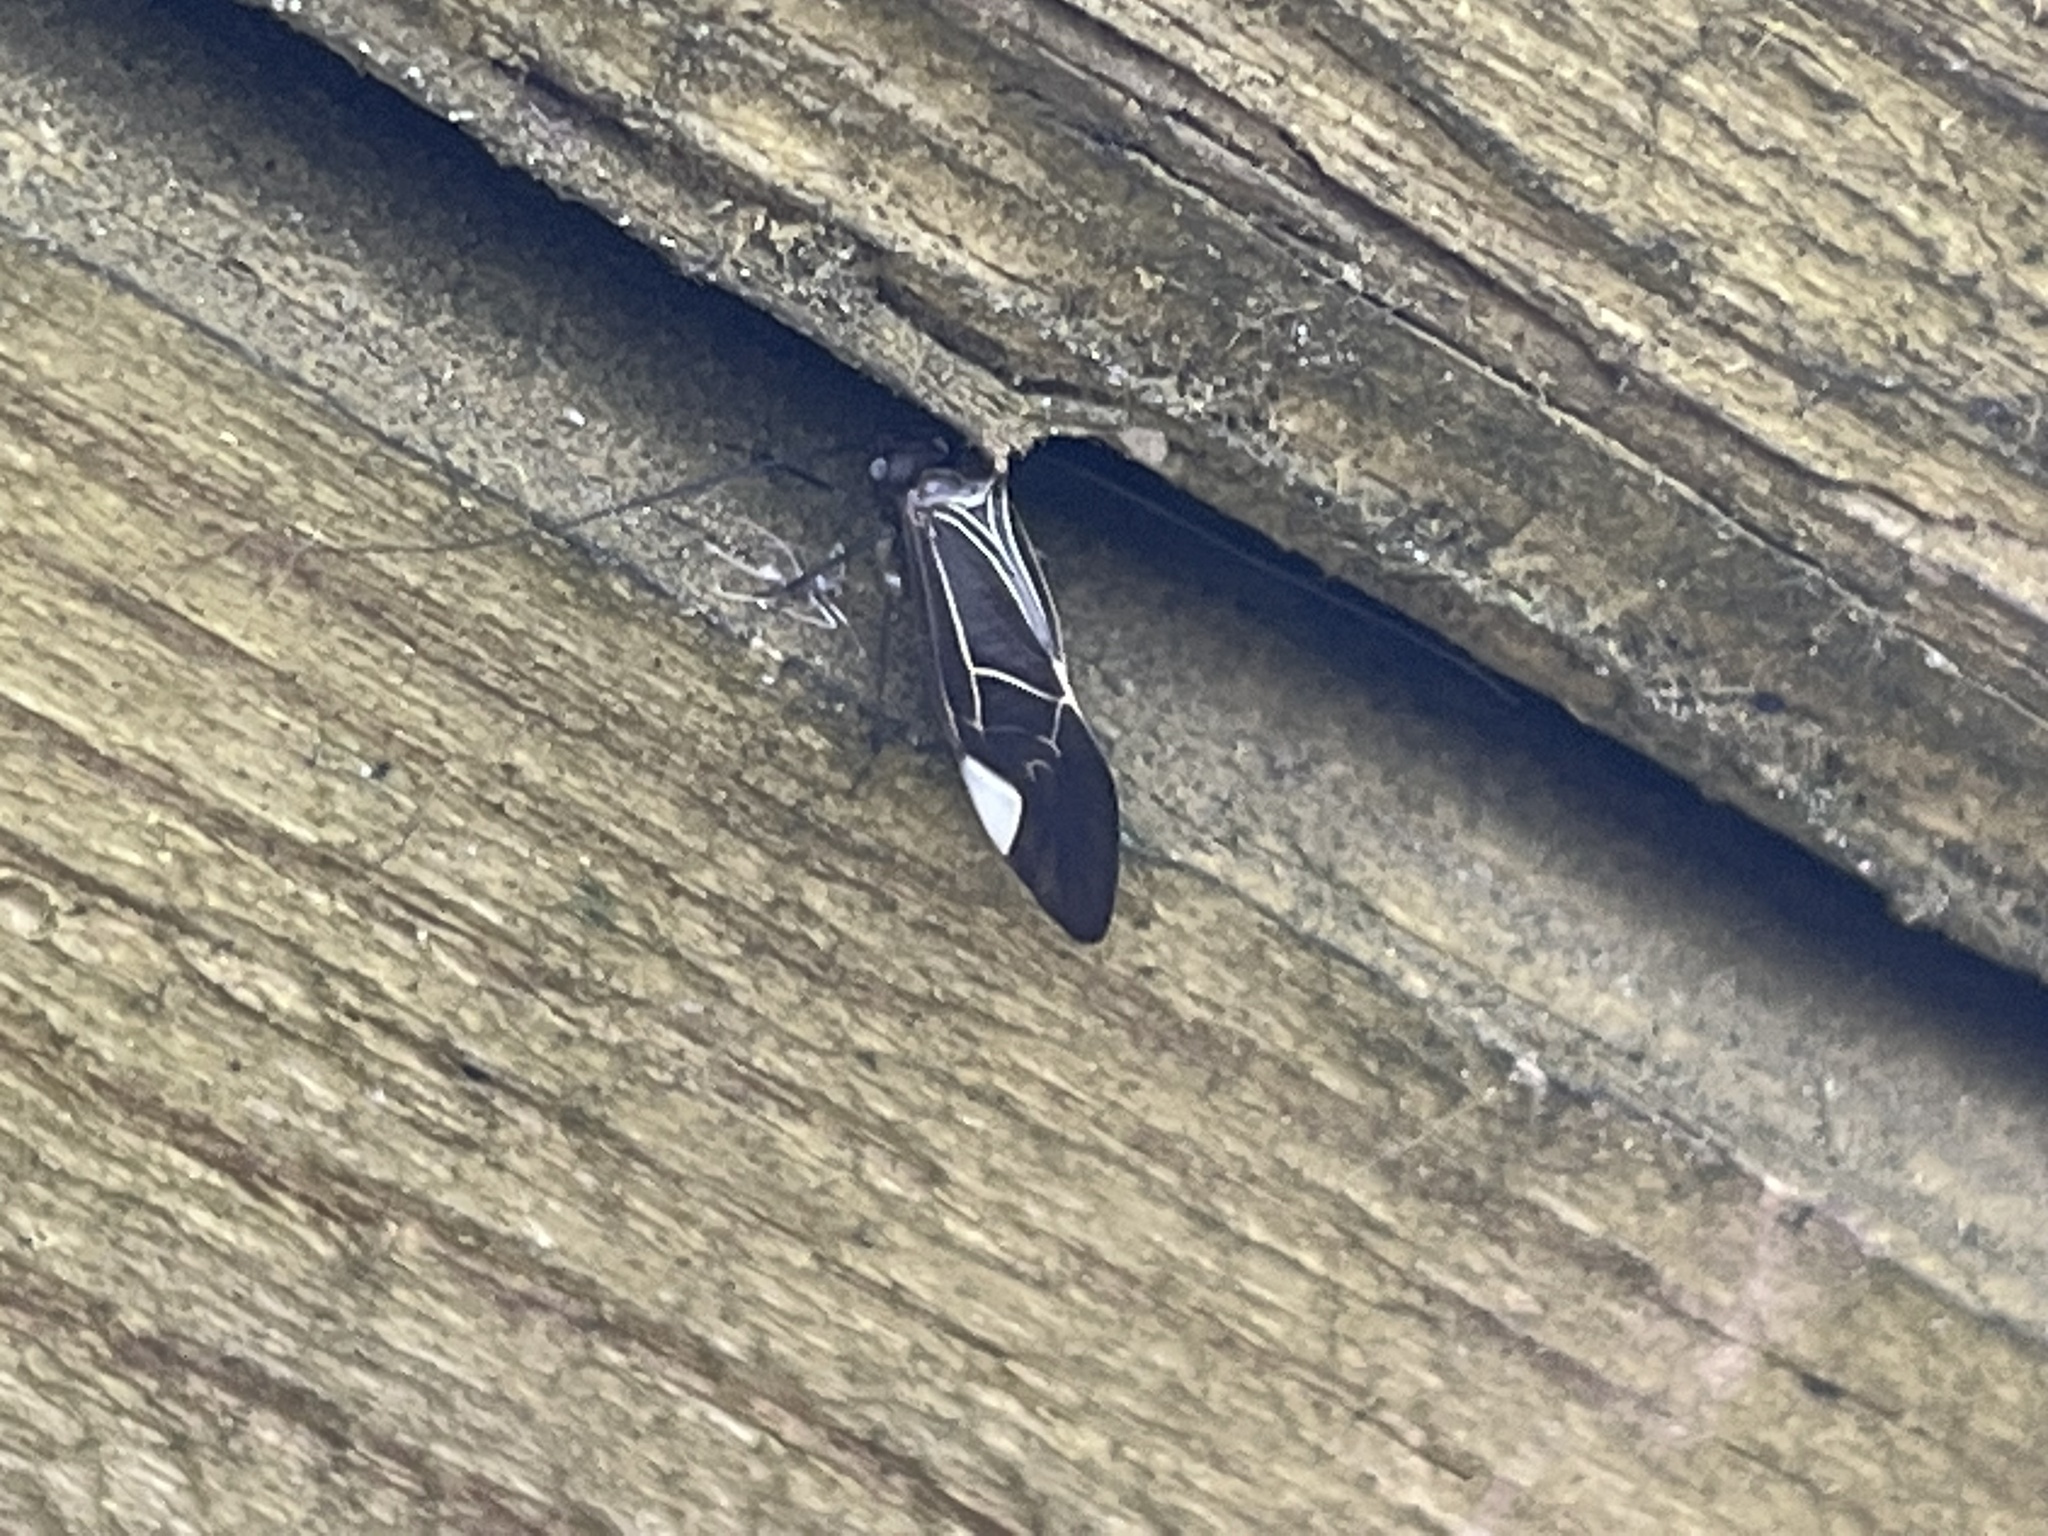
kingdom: Animalia
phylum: Arthropoda
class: Insecta
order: Psocodea
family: Psocidae
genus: Cerastipsocus
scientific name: Cerastipsocus venosus
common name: Tree cattle
